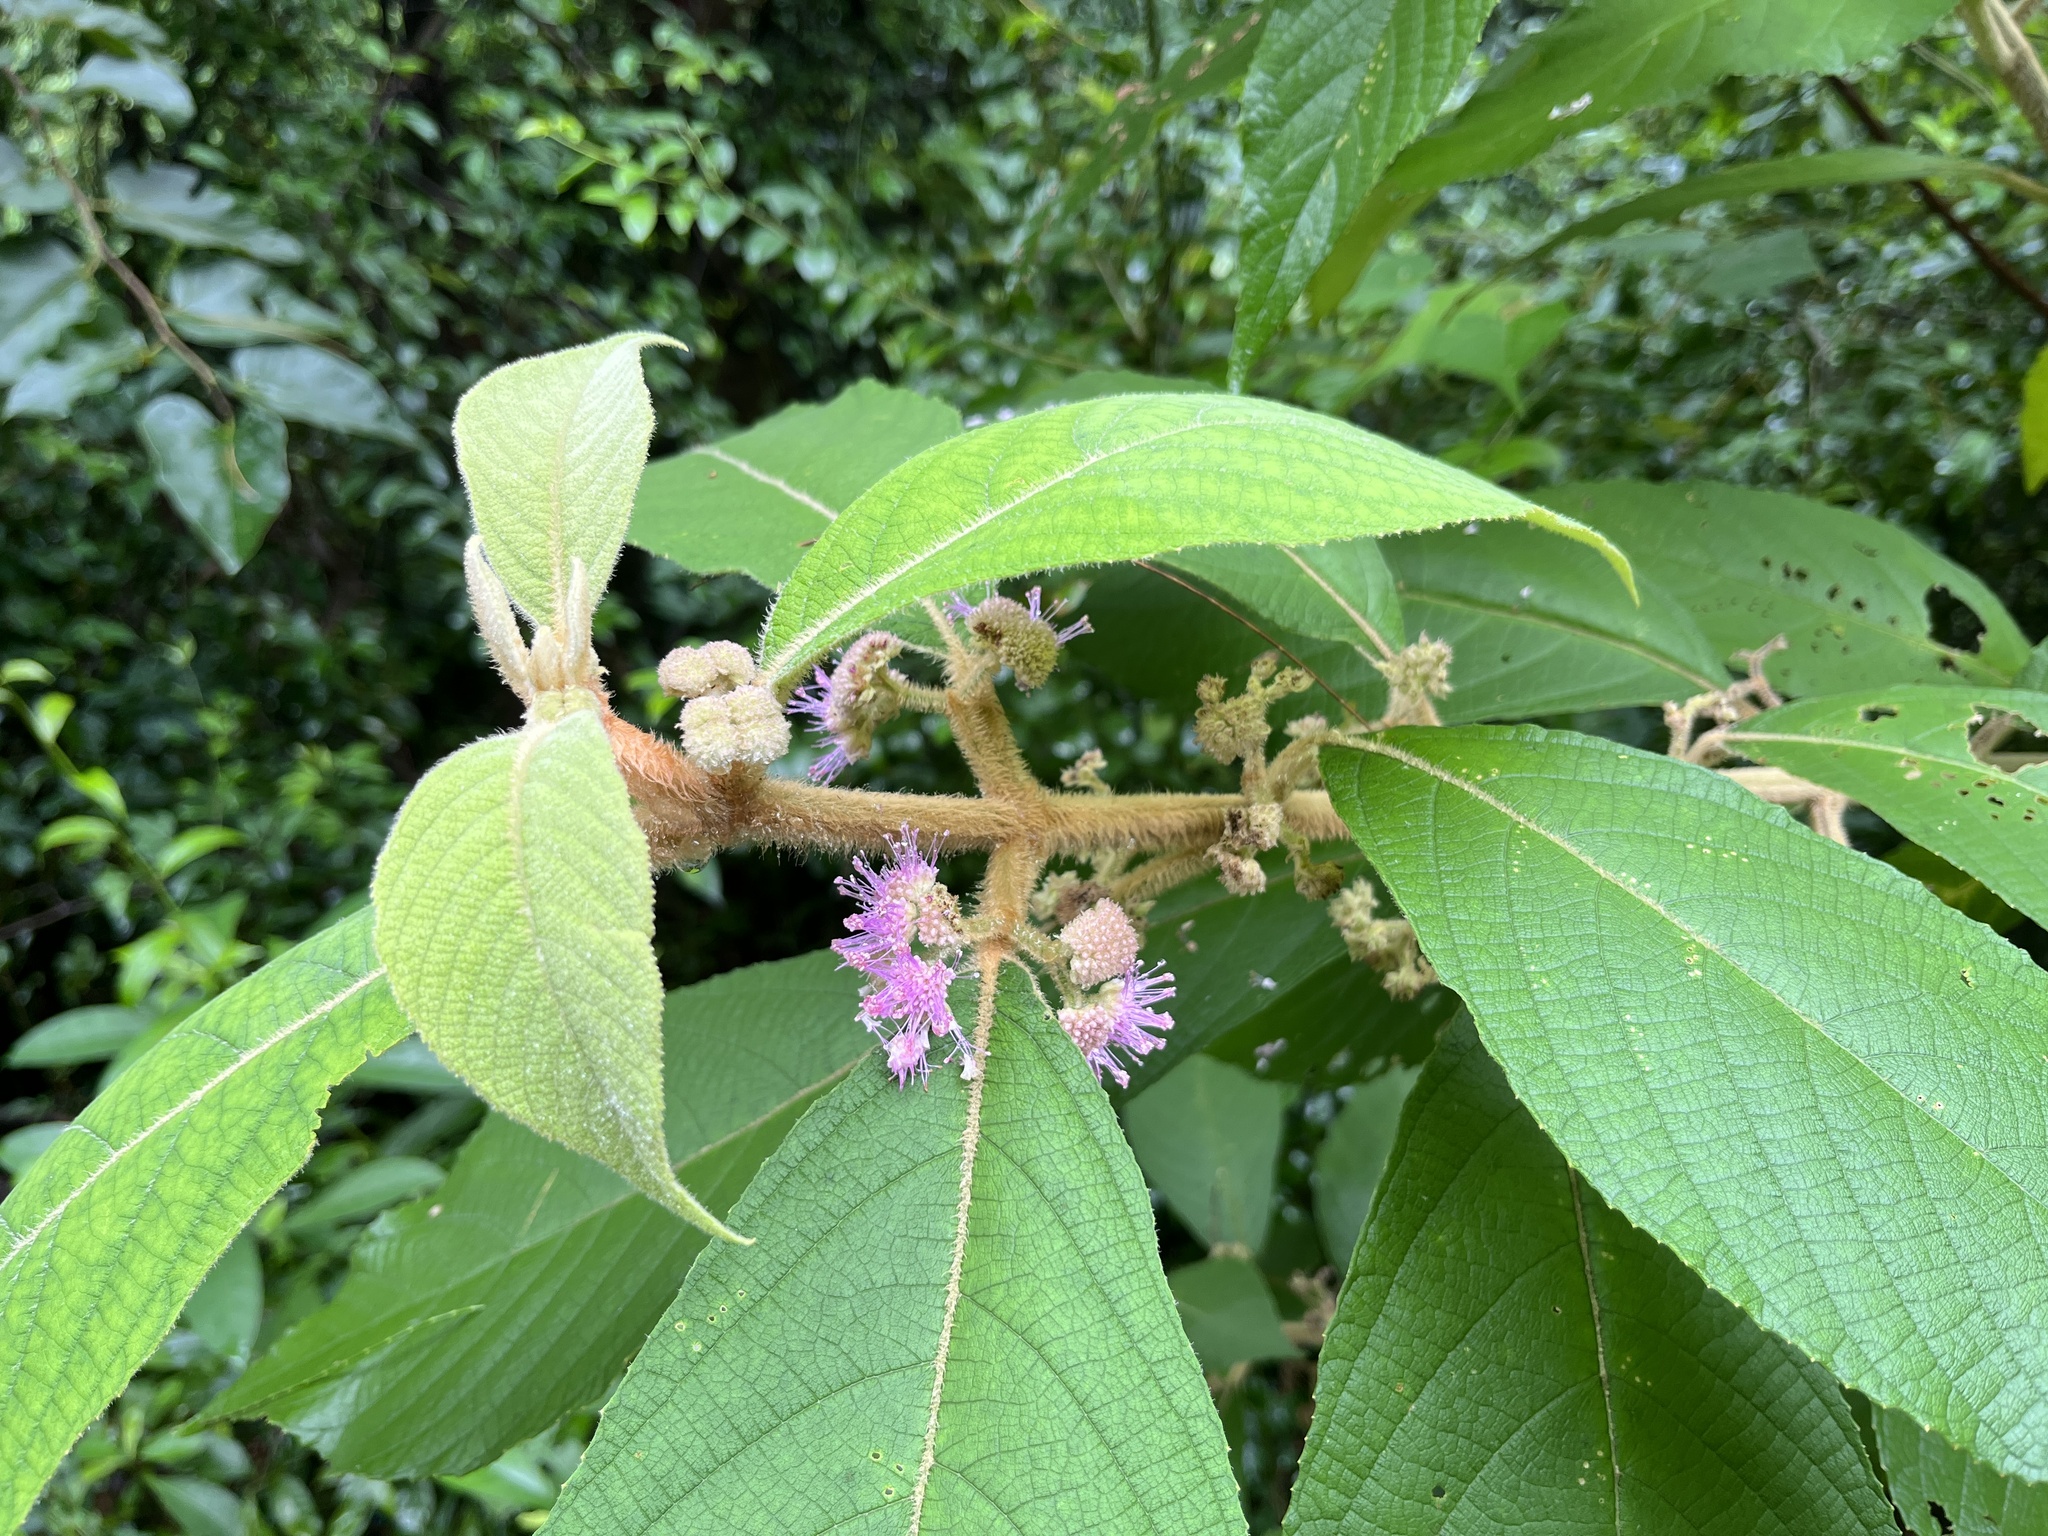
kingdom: Plantae
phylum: Tracheophyta
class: Magnoliopsida
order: Lamiales
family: Lamiaceae
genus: Callicarpa
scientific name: Callicarpa kochiana
